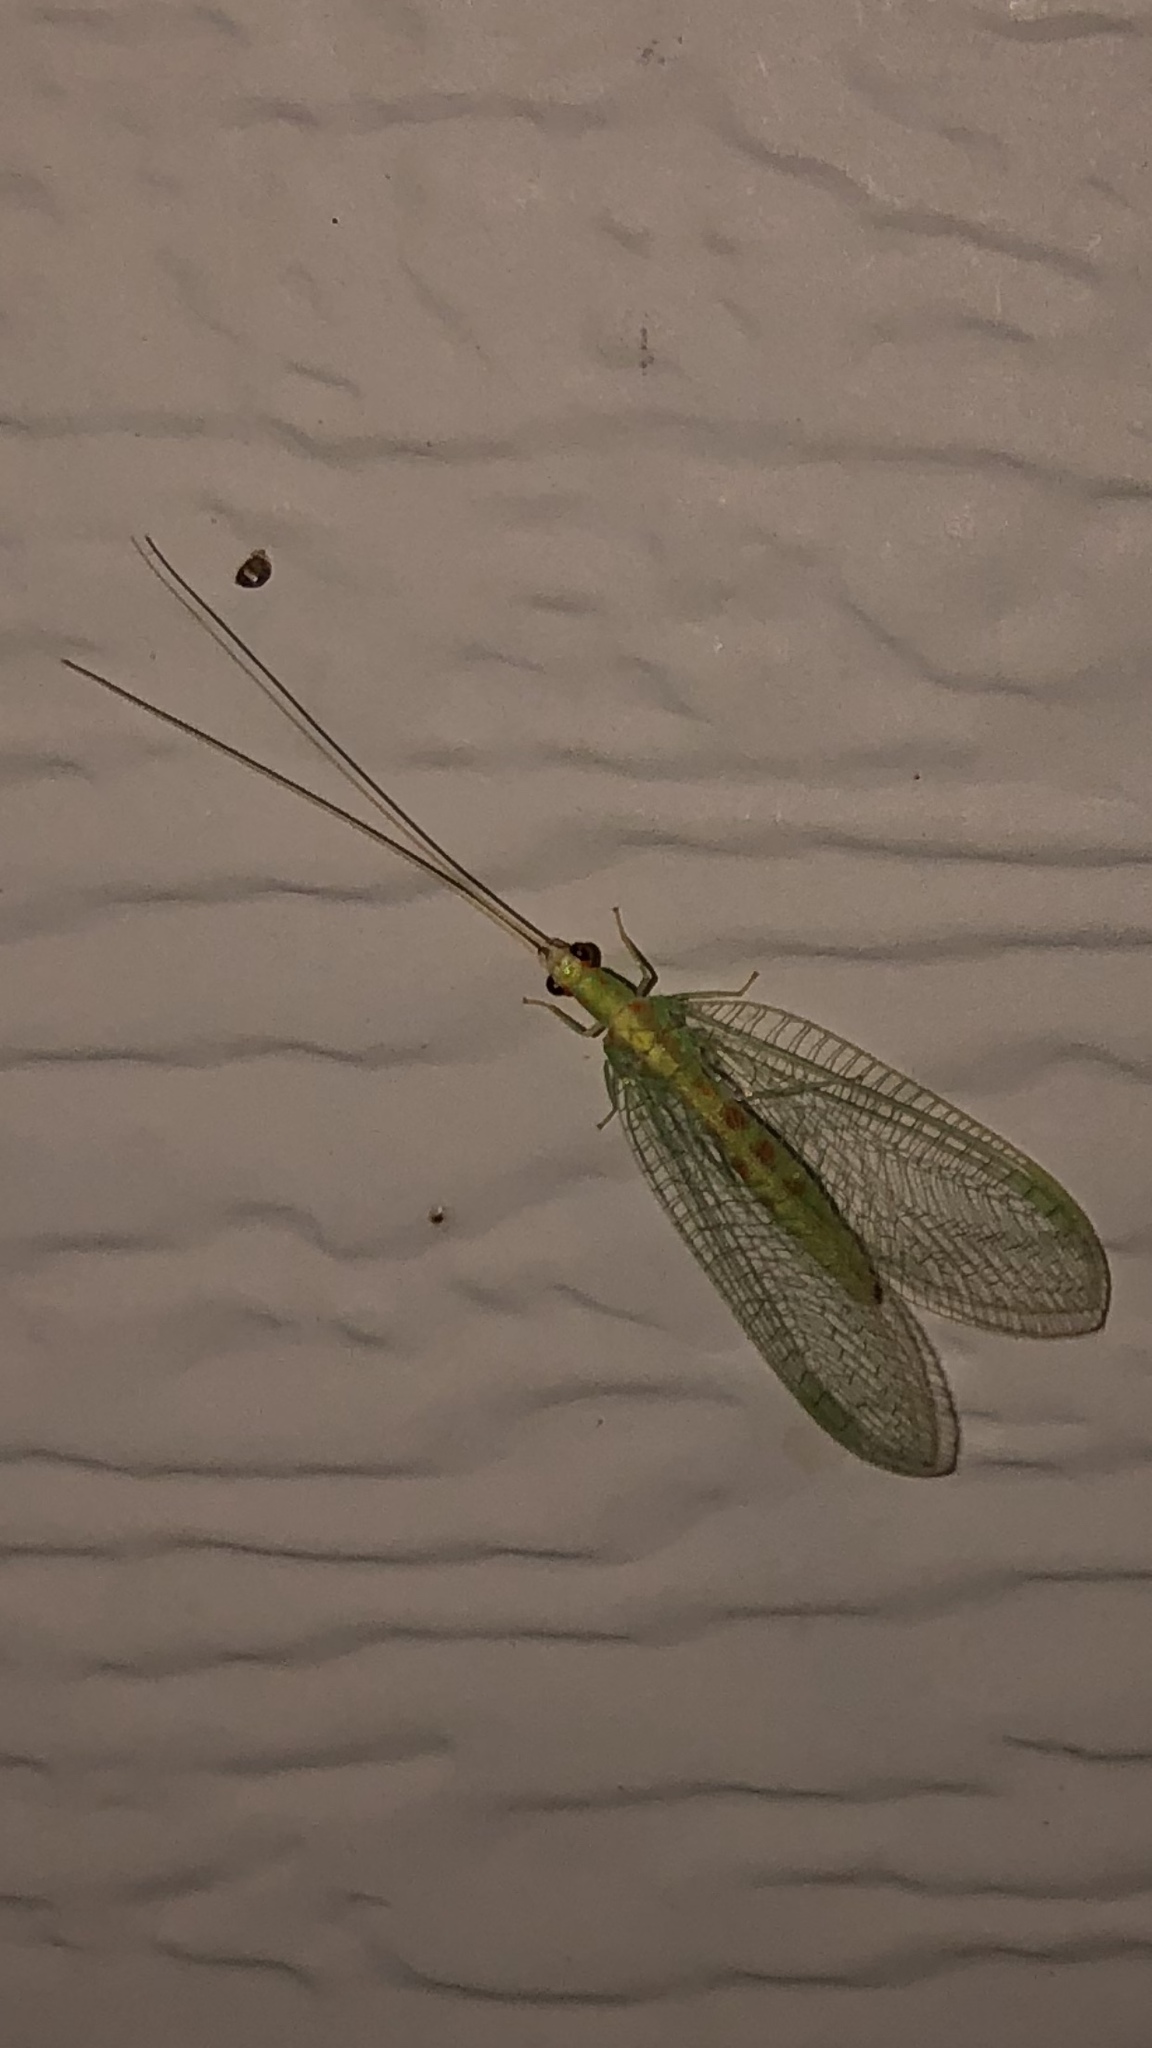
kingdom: Animalia
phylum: Arthropoda
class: Insecta
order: Neuroptera
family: Chrysopidae
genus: Chrysopa
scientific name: Chrysopa quadripunctata
